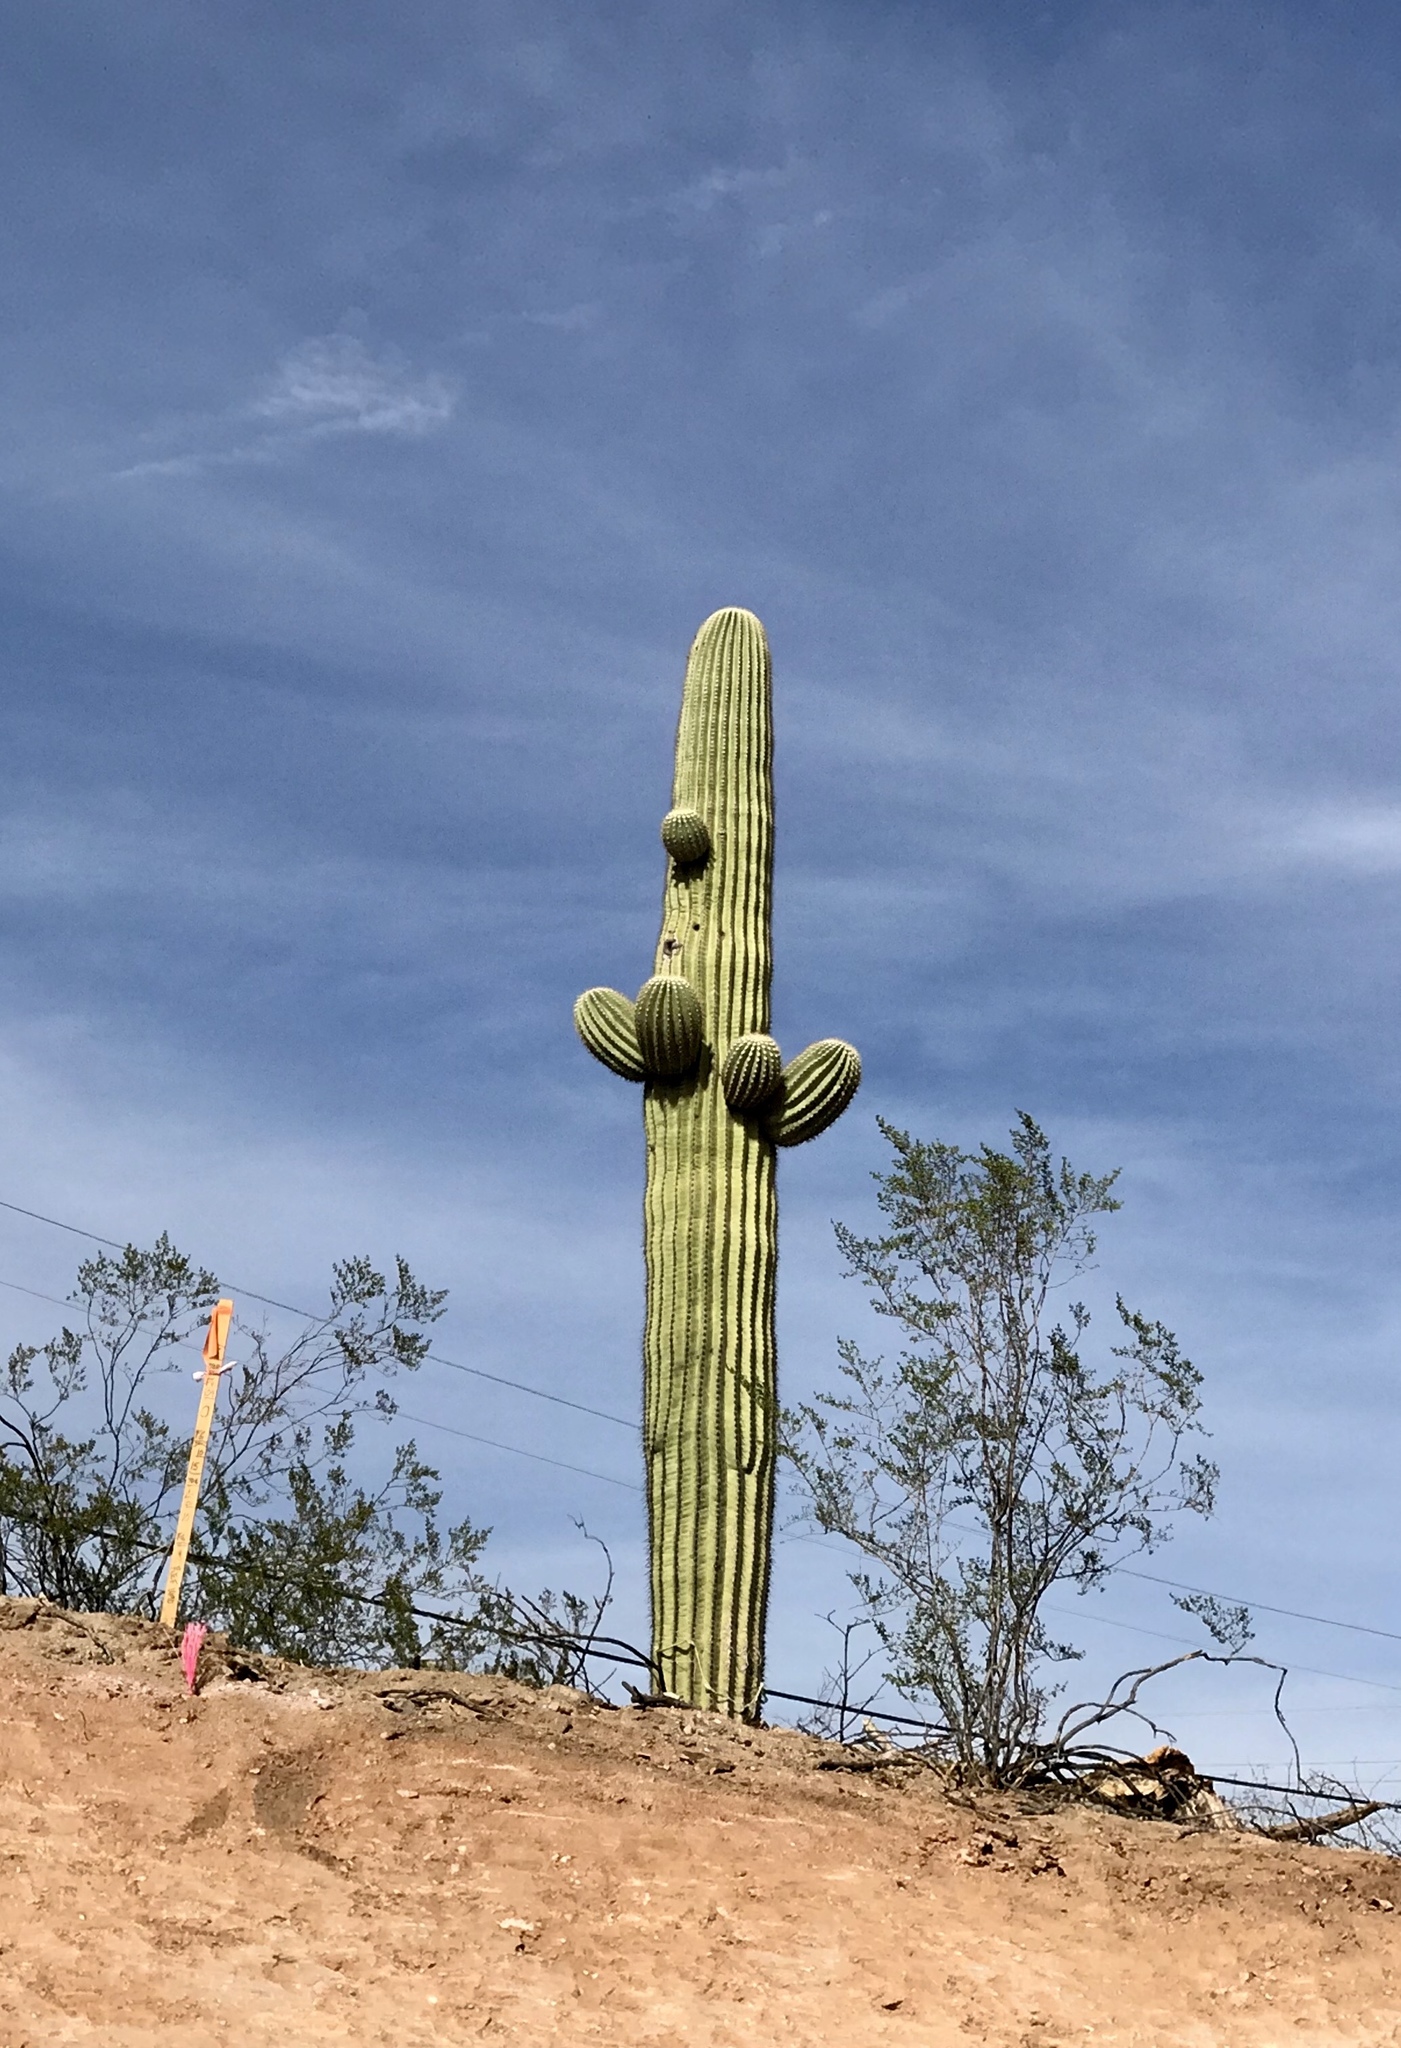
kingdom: Plantae
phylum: Tracheophyta
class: Magnoliopsida
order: Caryophyllales
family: Cactaceae
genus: Carnegiea
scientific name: Carnegiea gigantea
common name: Saguaro
